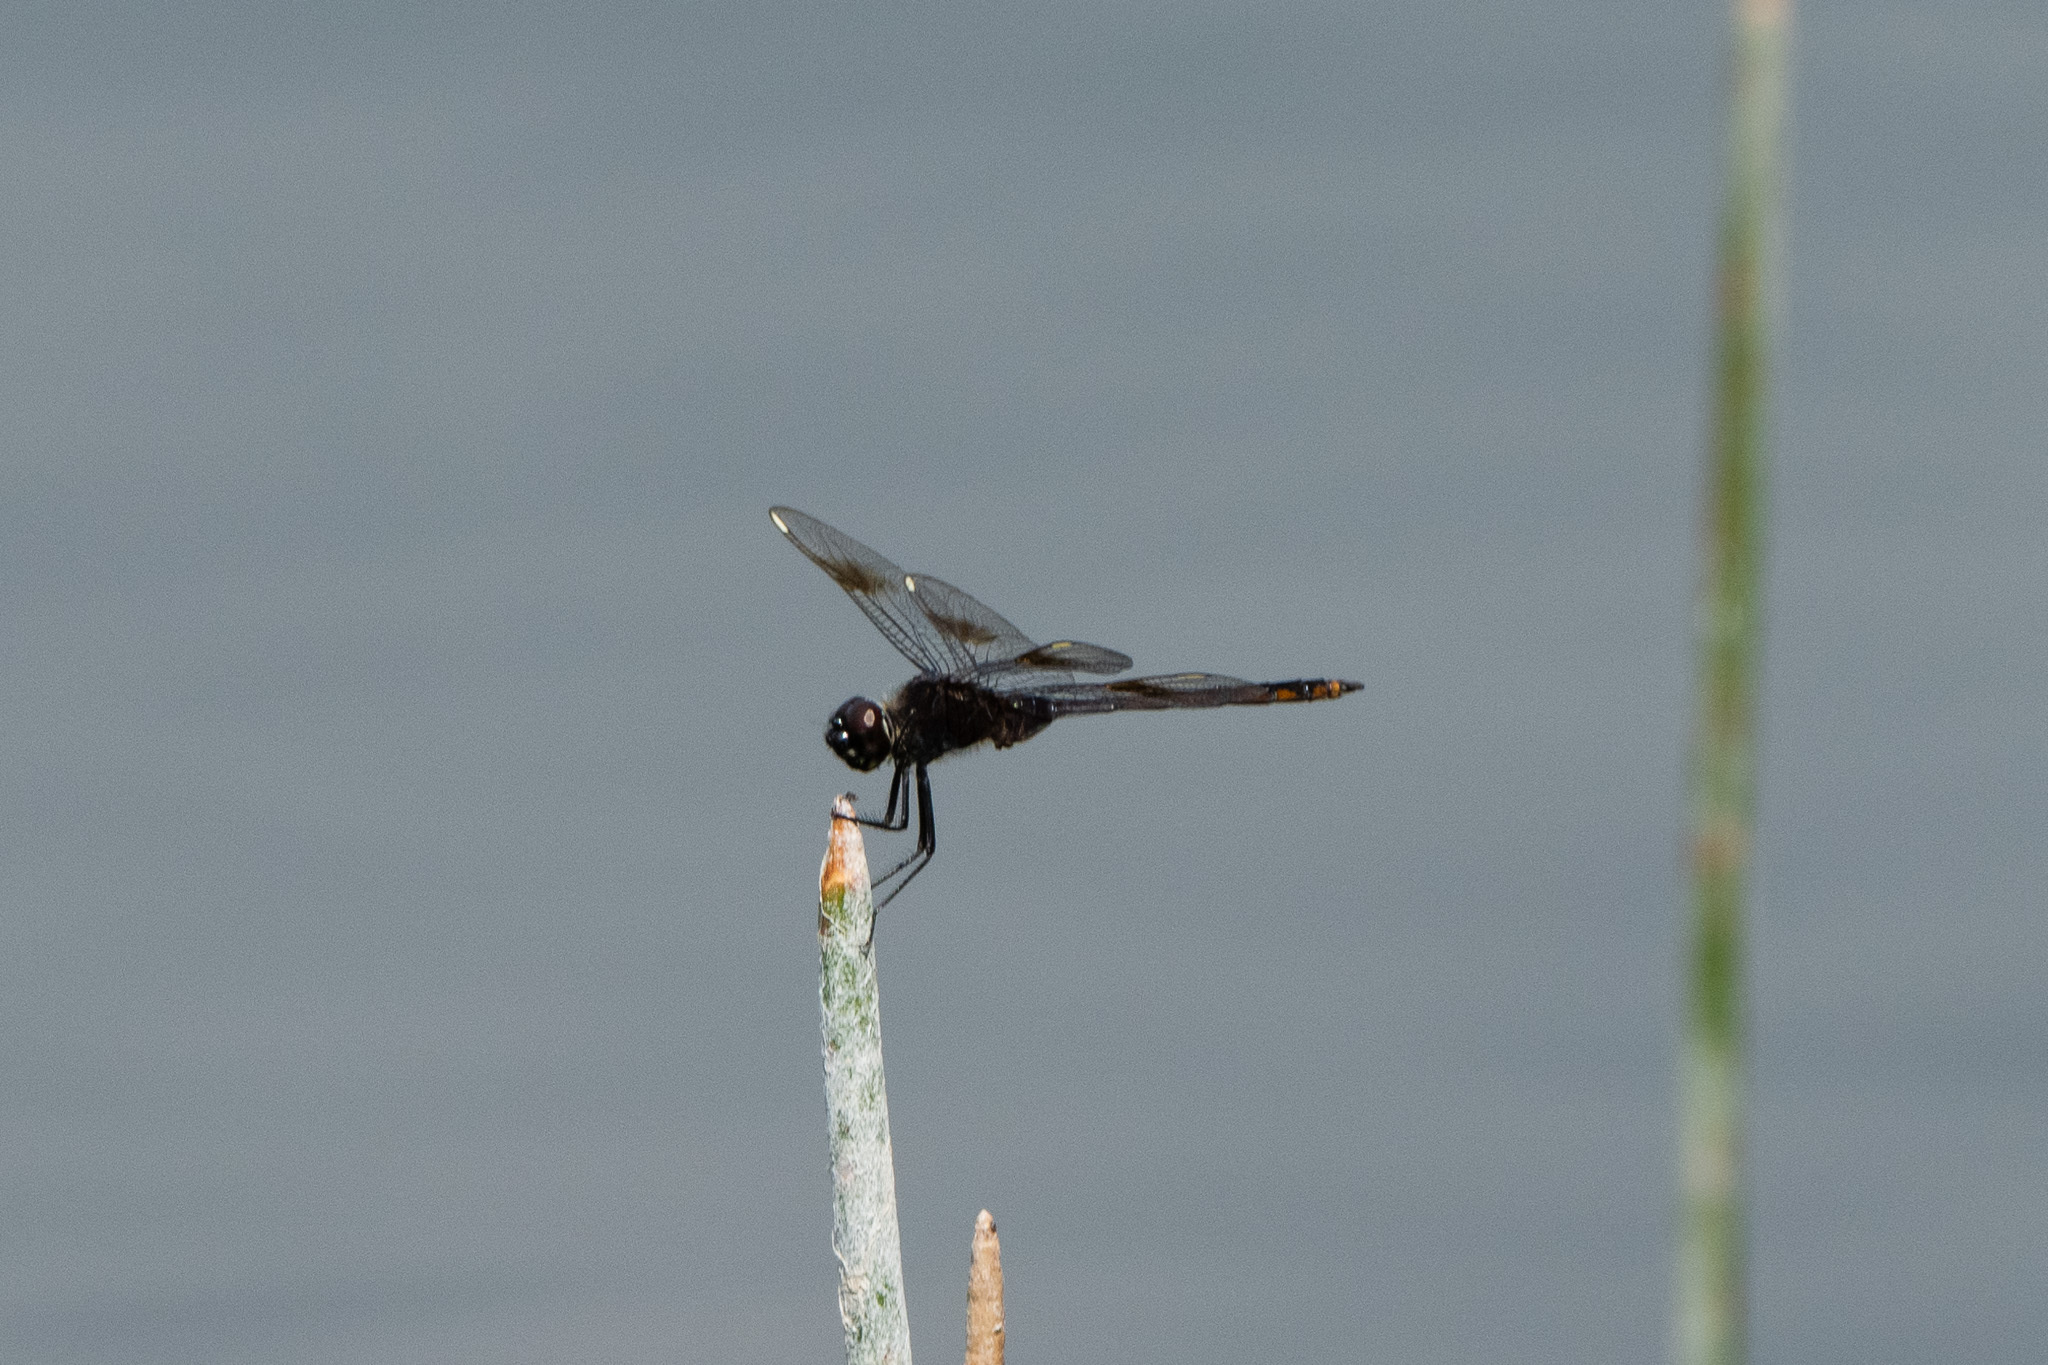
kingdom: Animalia
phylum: Arthropoda
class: Insecta
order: Odonata
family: Libellulidae
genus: Brachymesia
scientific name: Brachymesia gravida
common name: Four-spotted pennant
